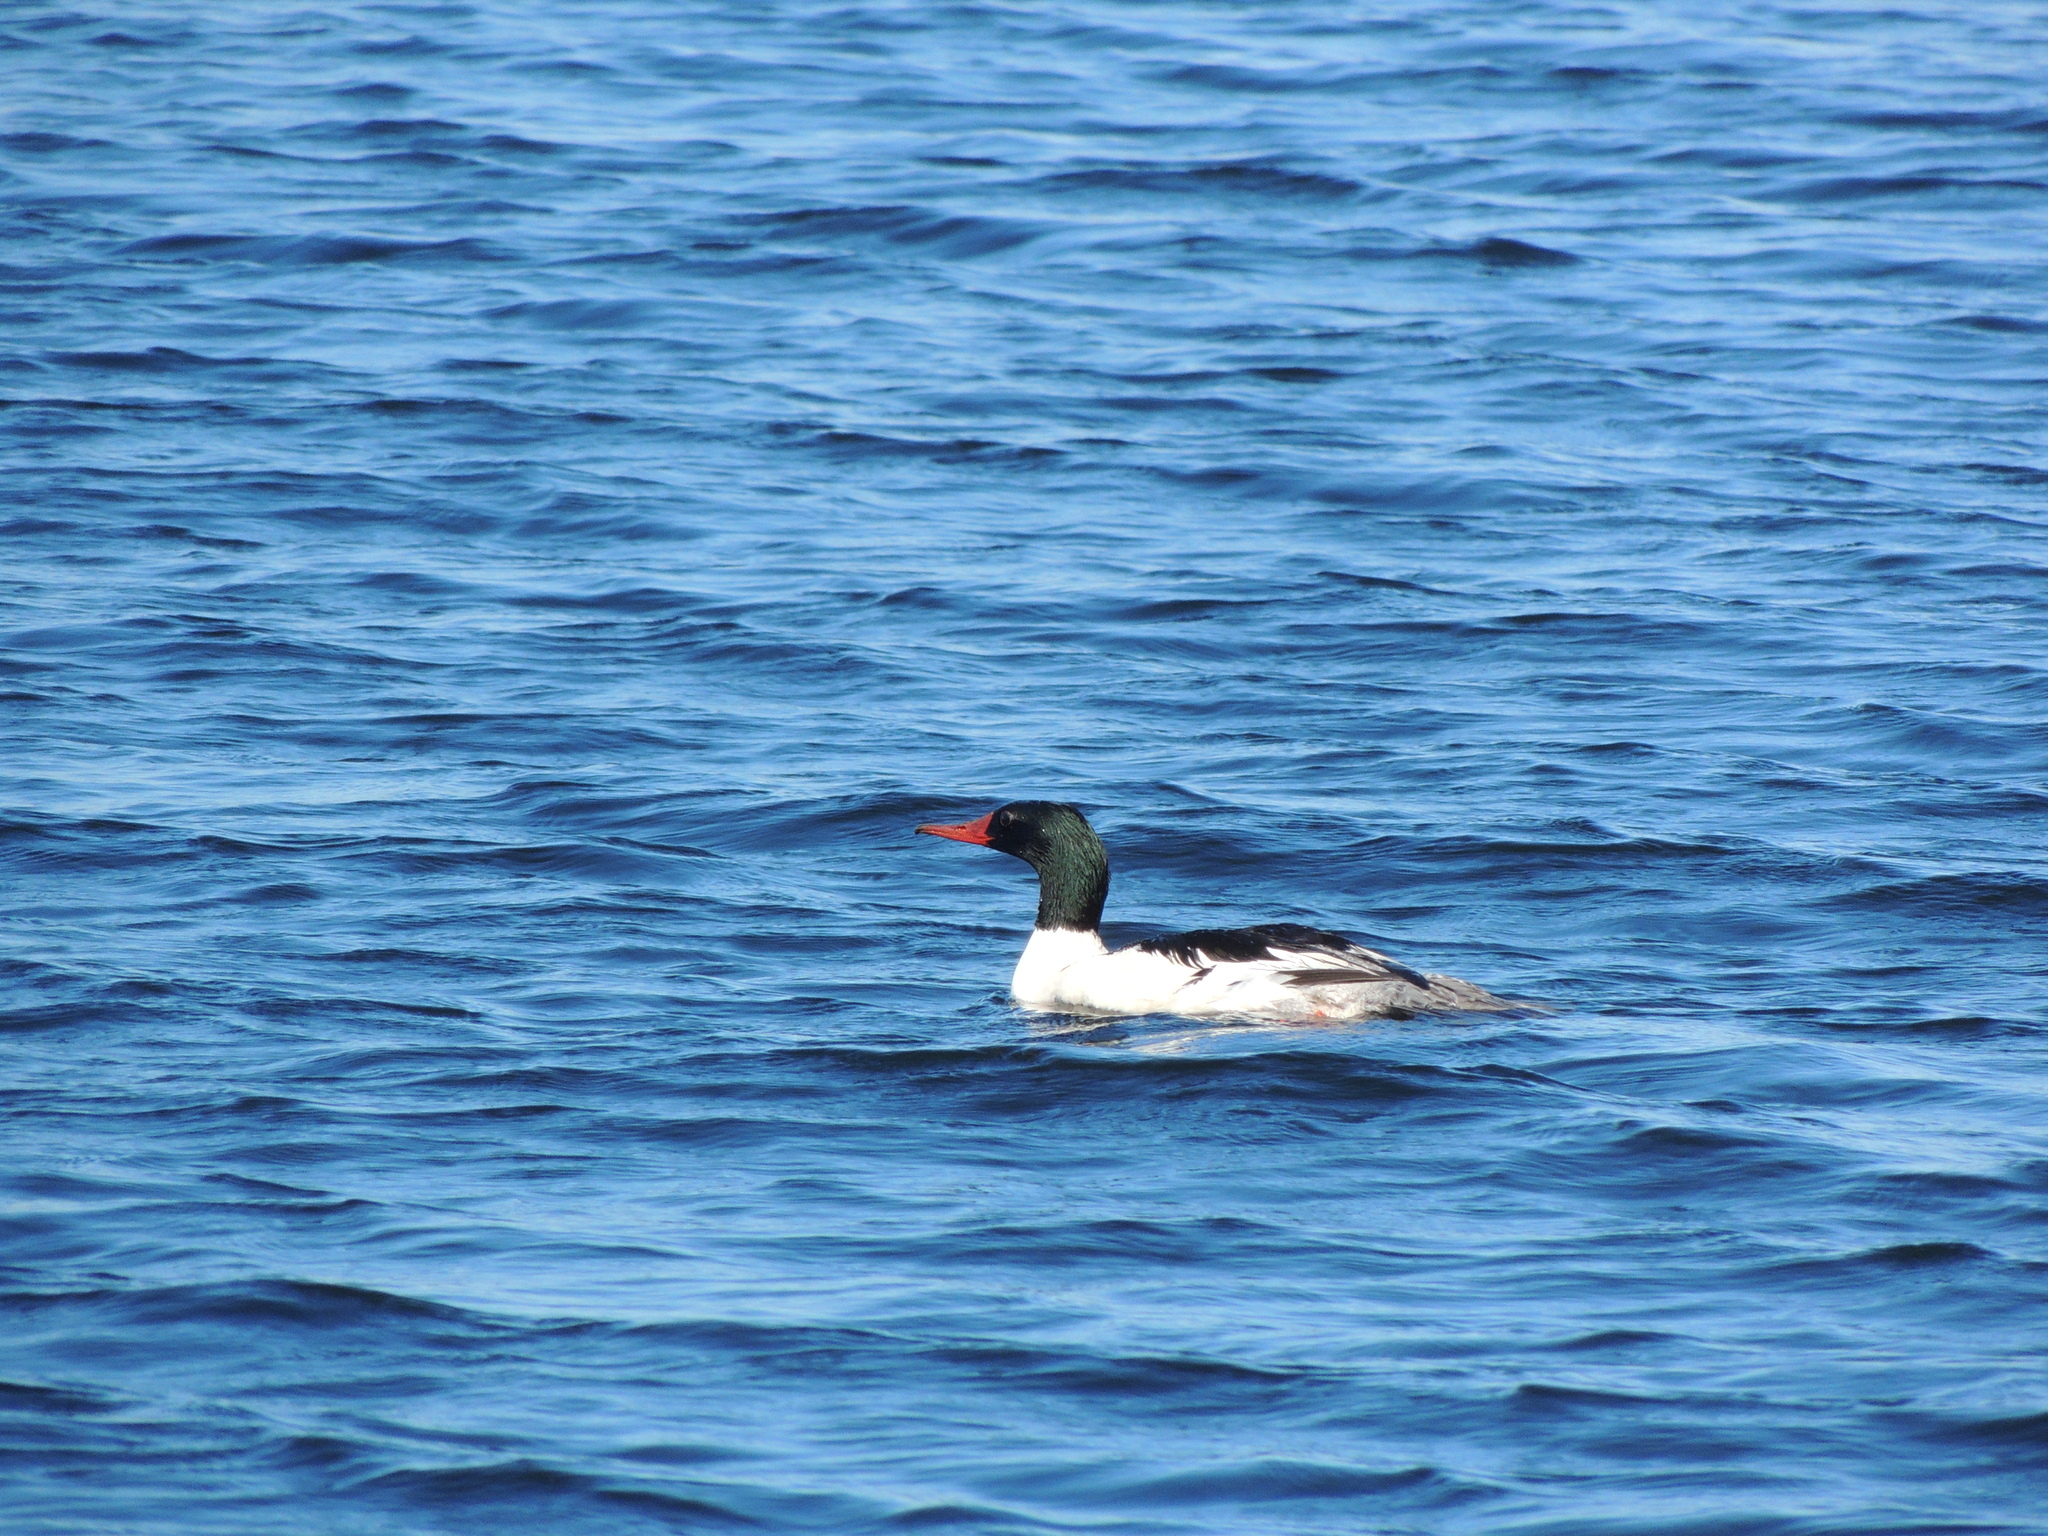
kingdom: Animalia
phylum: Chordata
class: Aves
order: Anseriformes
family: Anatidae
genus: Mergus
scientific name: Mergus merganser
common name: Common merganser
